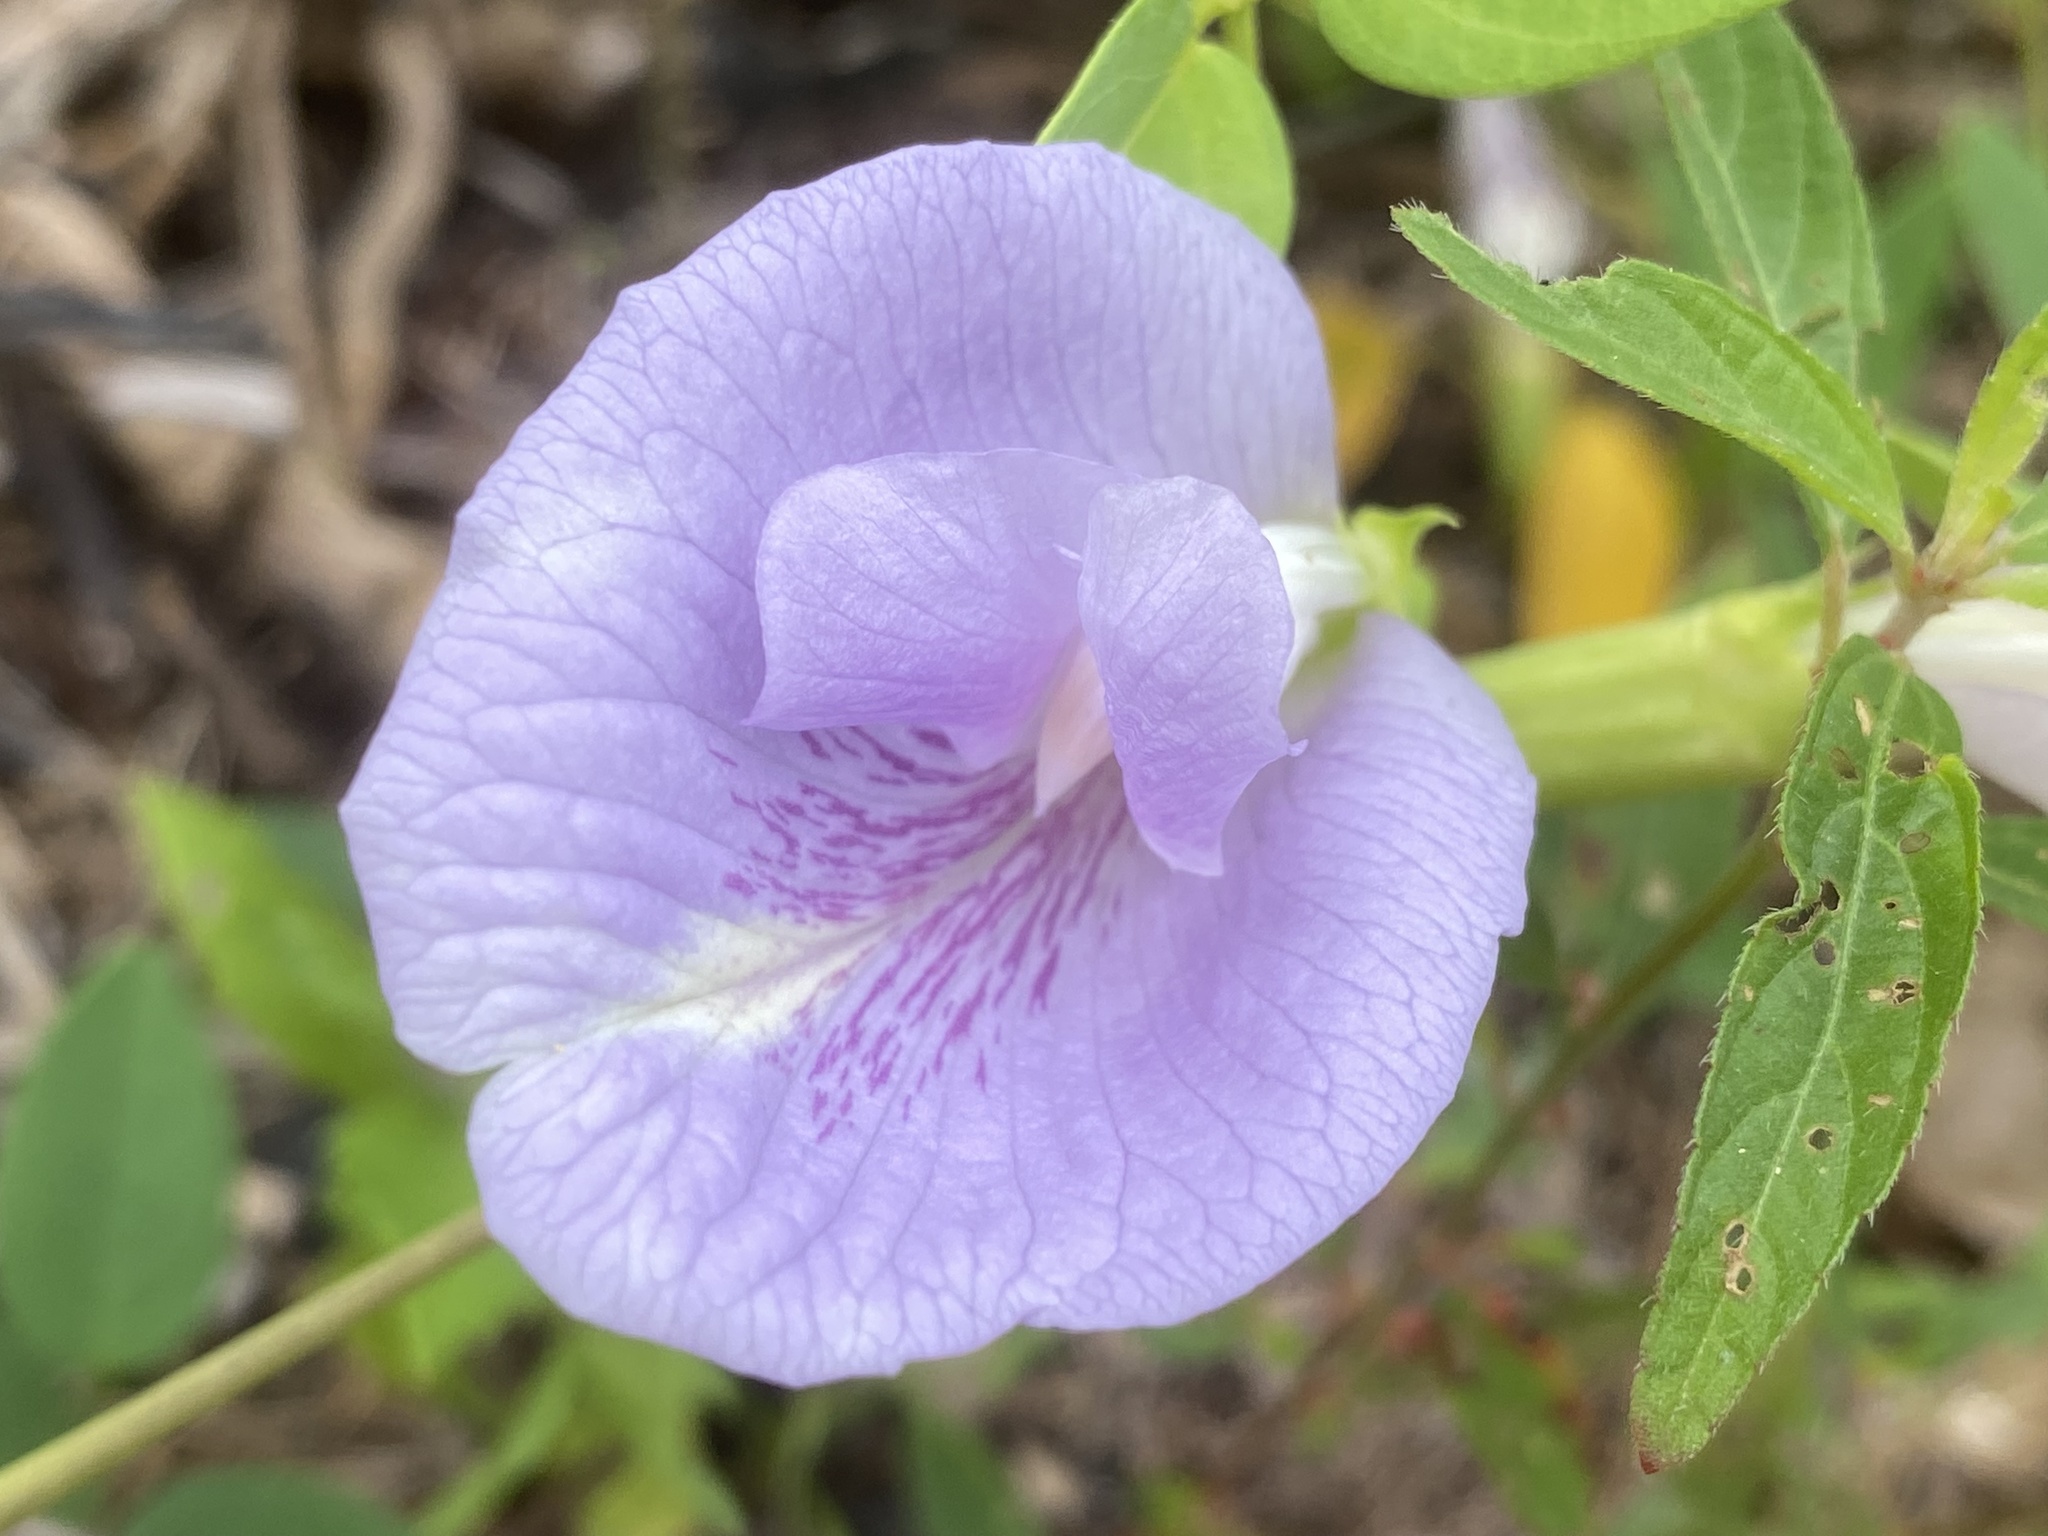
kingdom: Plantae
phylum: Tracheophyta
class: Magnoliopsida
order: Fabales
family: Fabaceae
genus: Clitoria
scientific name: Clitoria mariana
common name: Butterfly-pea
